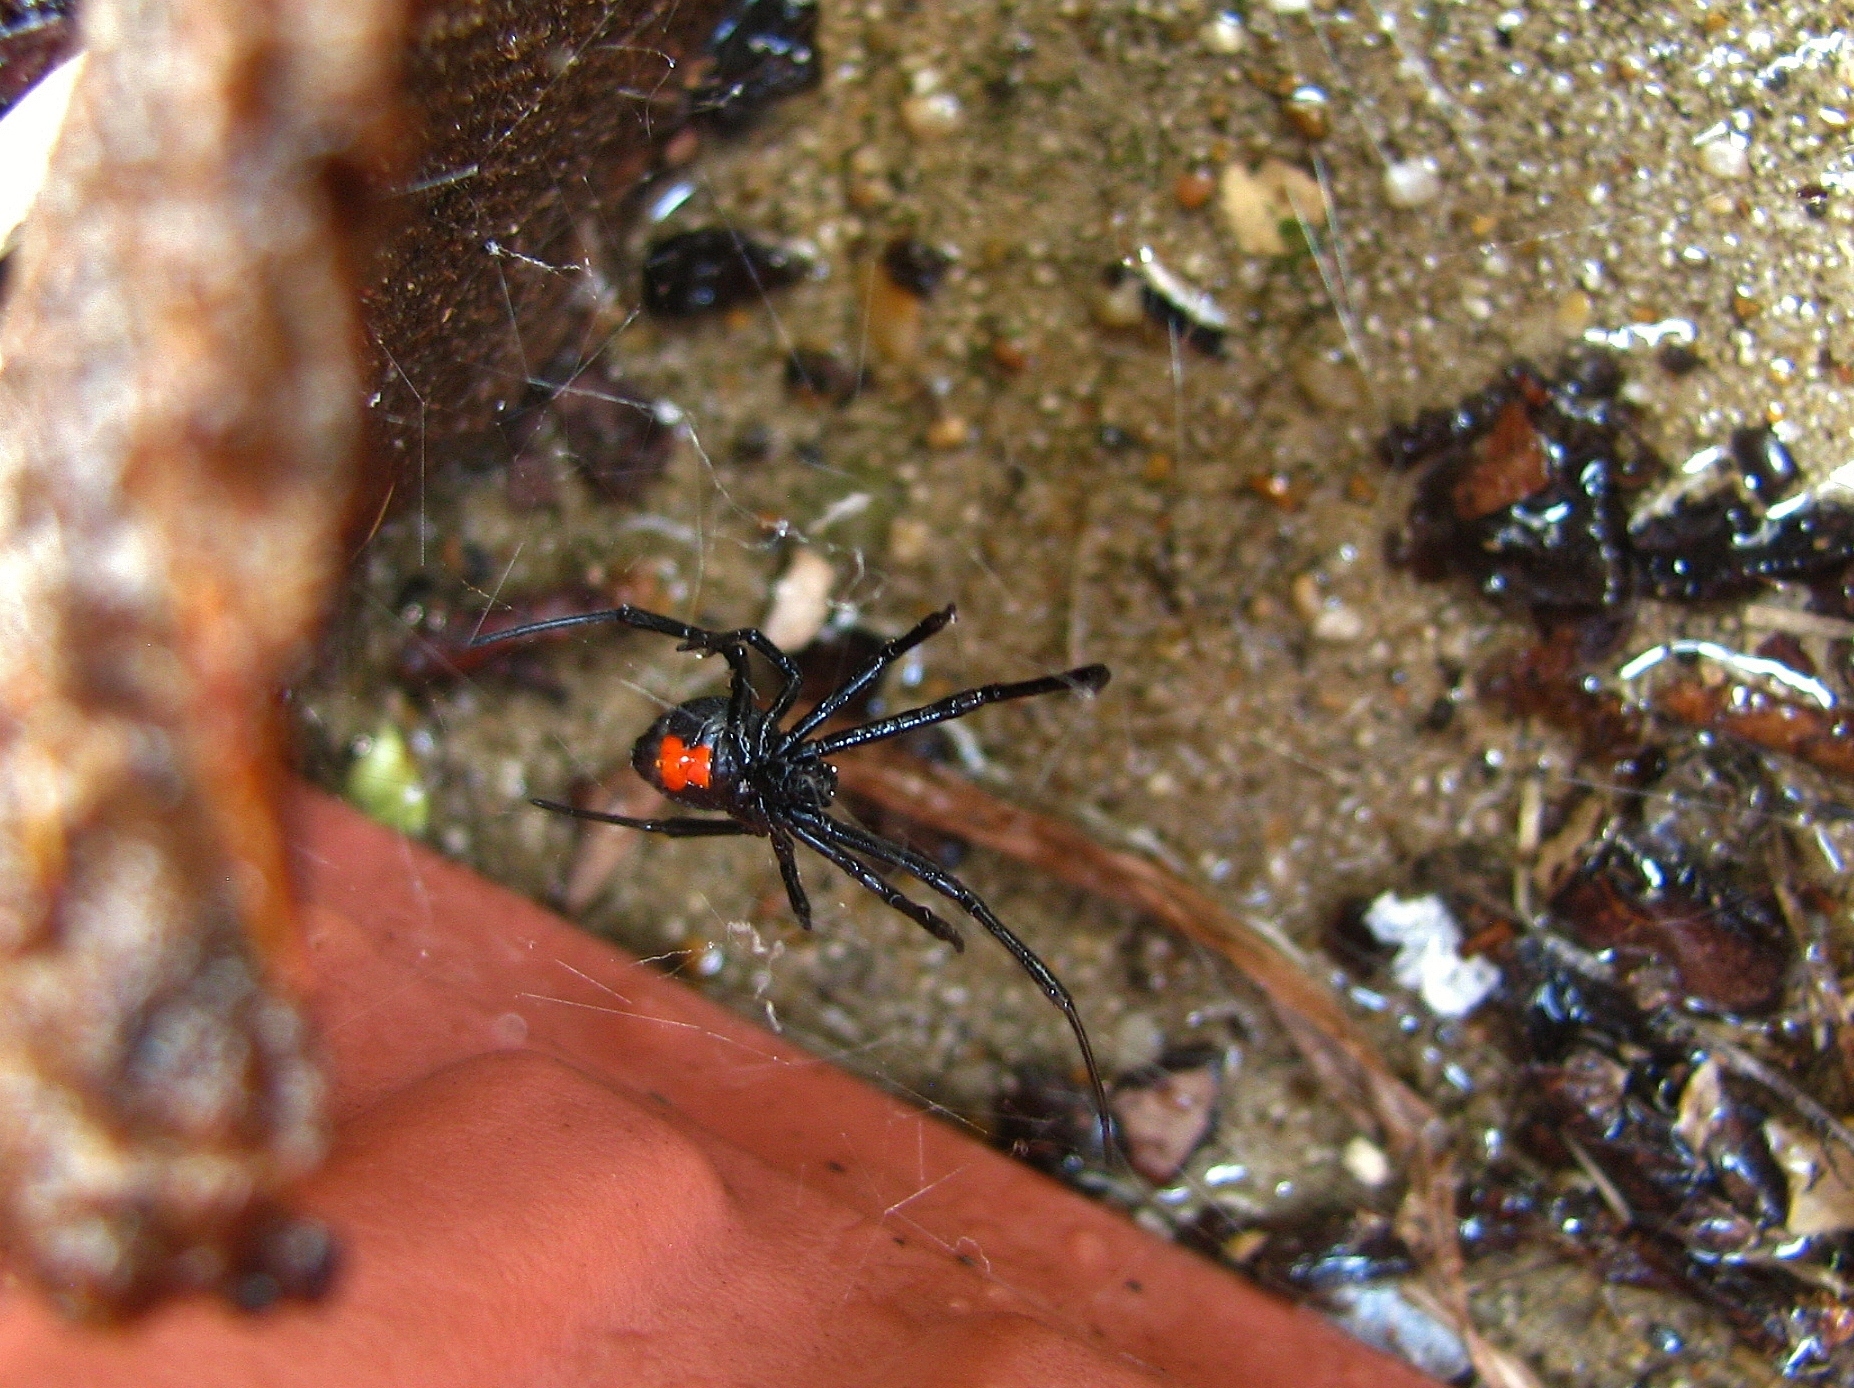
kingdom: Animalia
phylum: Arthropoda
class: Arachnida
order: Araneae
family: Theridiidae
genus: Latrodectus
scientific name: Latrodectus mactans
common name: Cobweb spiders
